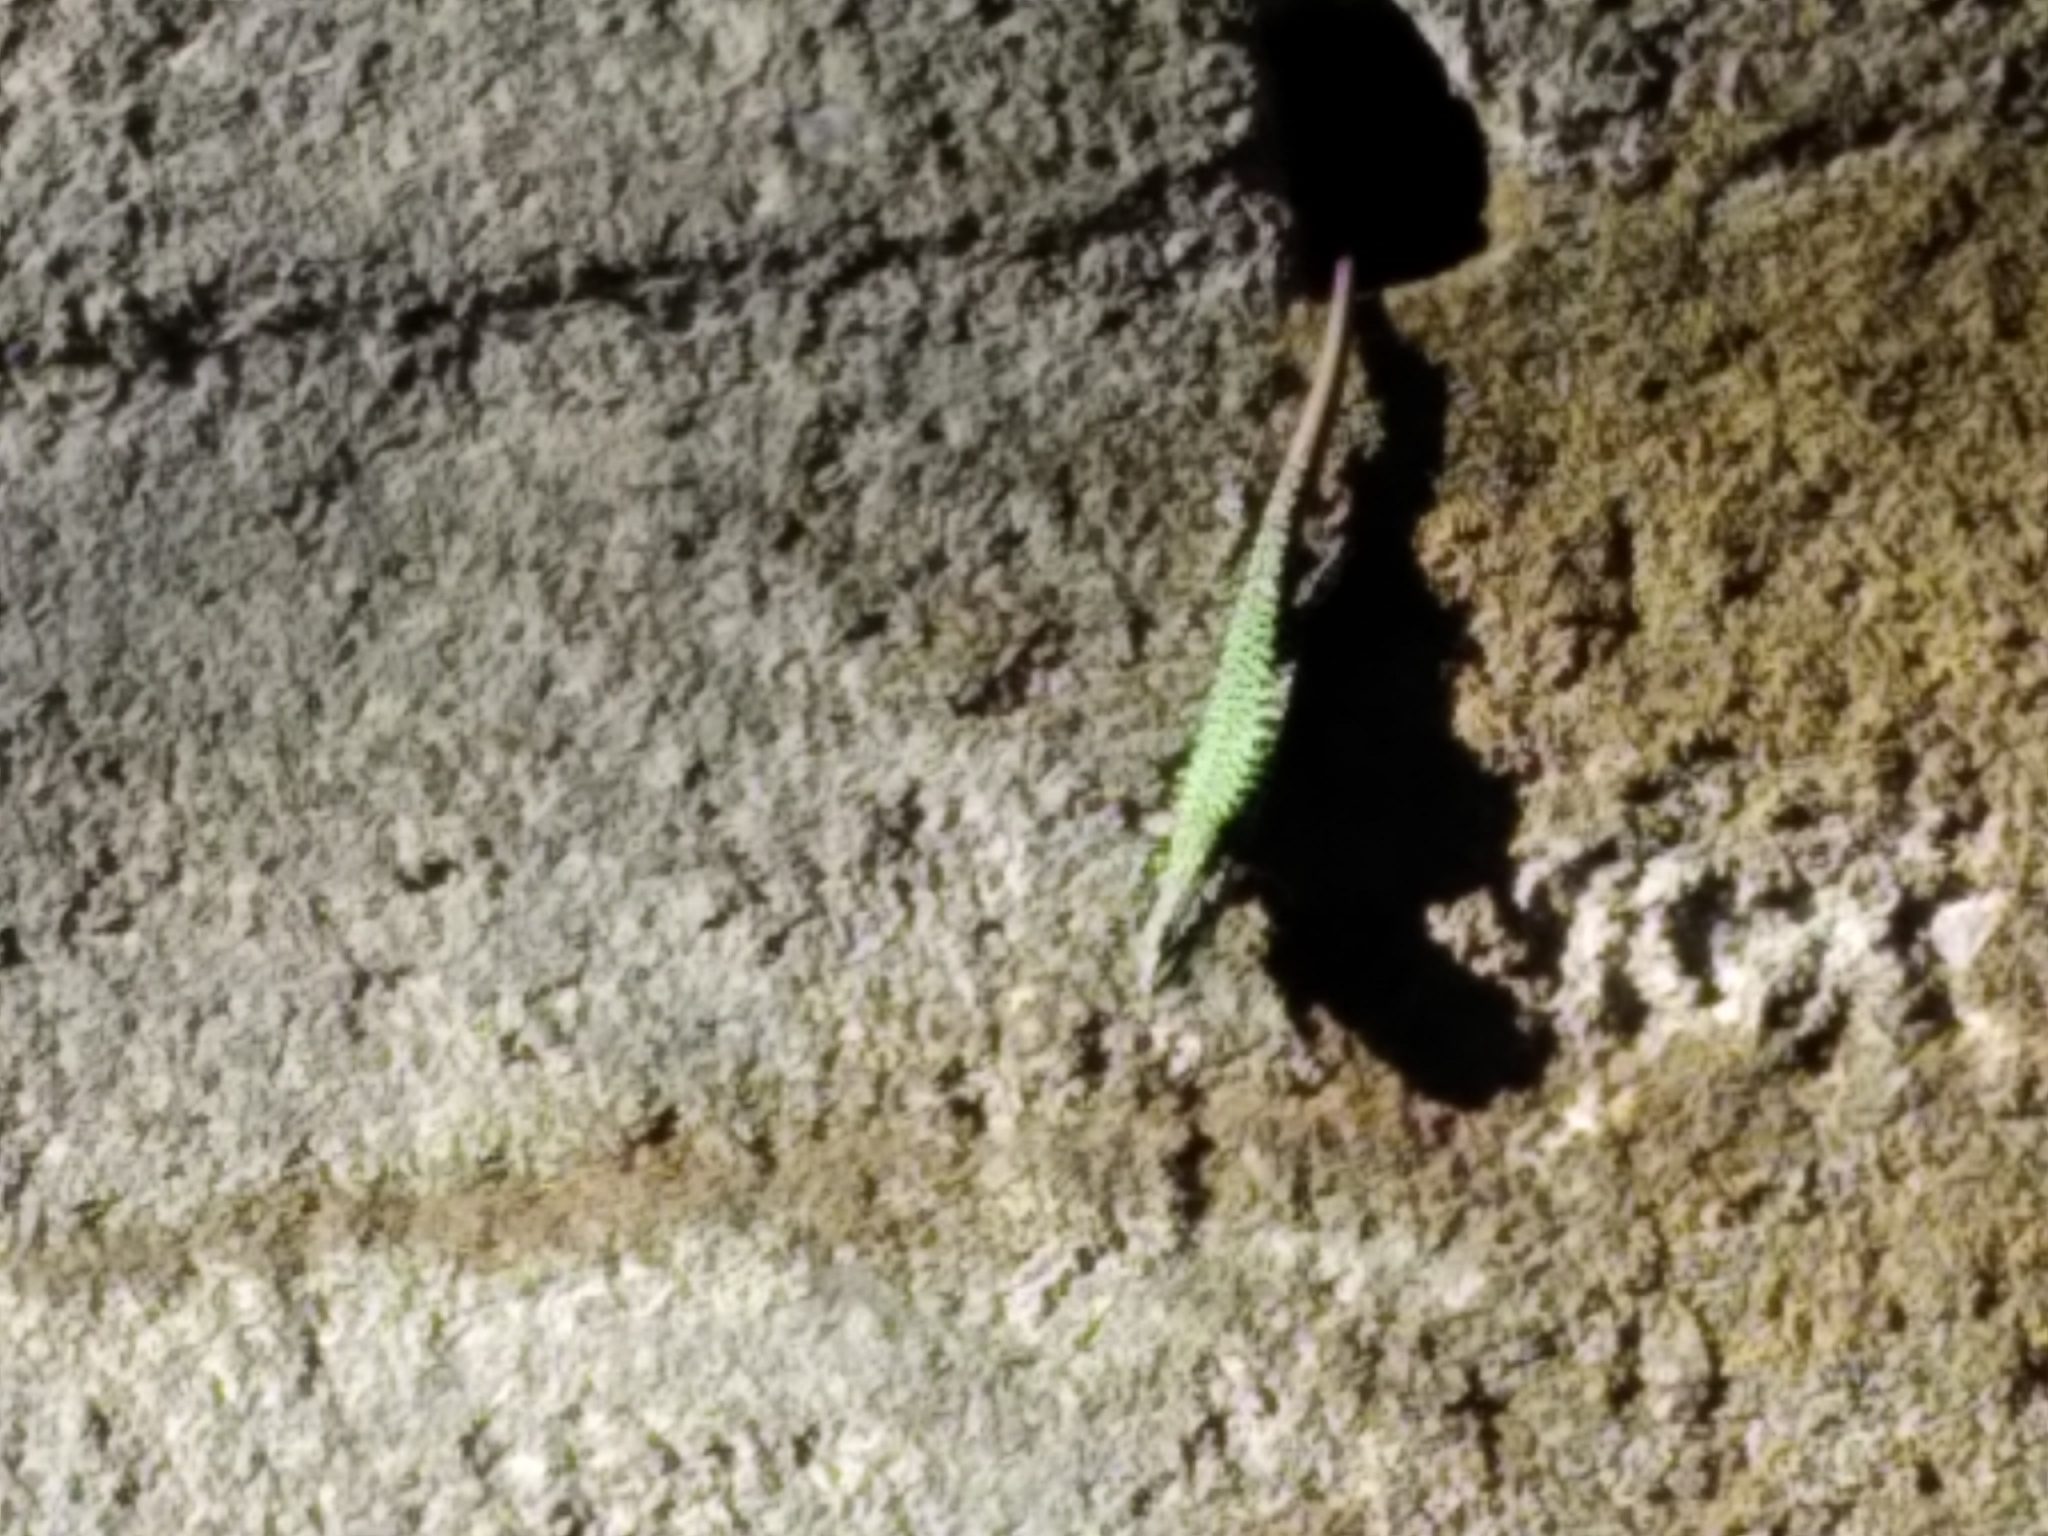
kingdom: Animalia
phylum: Chordata
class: Squamata
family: Lacertidae
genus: Podarcis
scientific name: Podarcis muralis
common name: Common wall lizard
